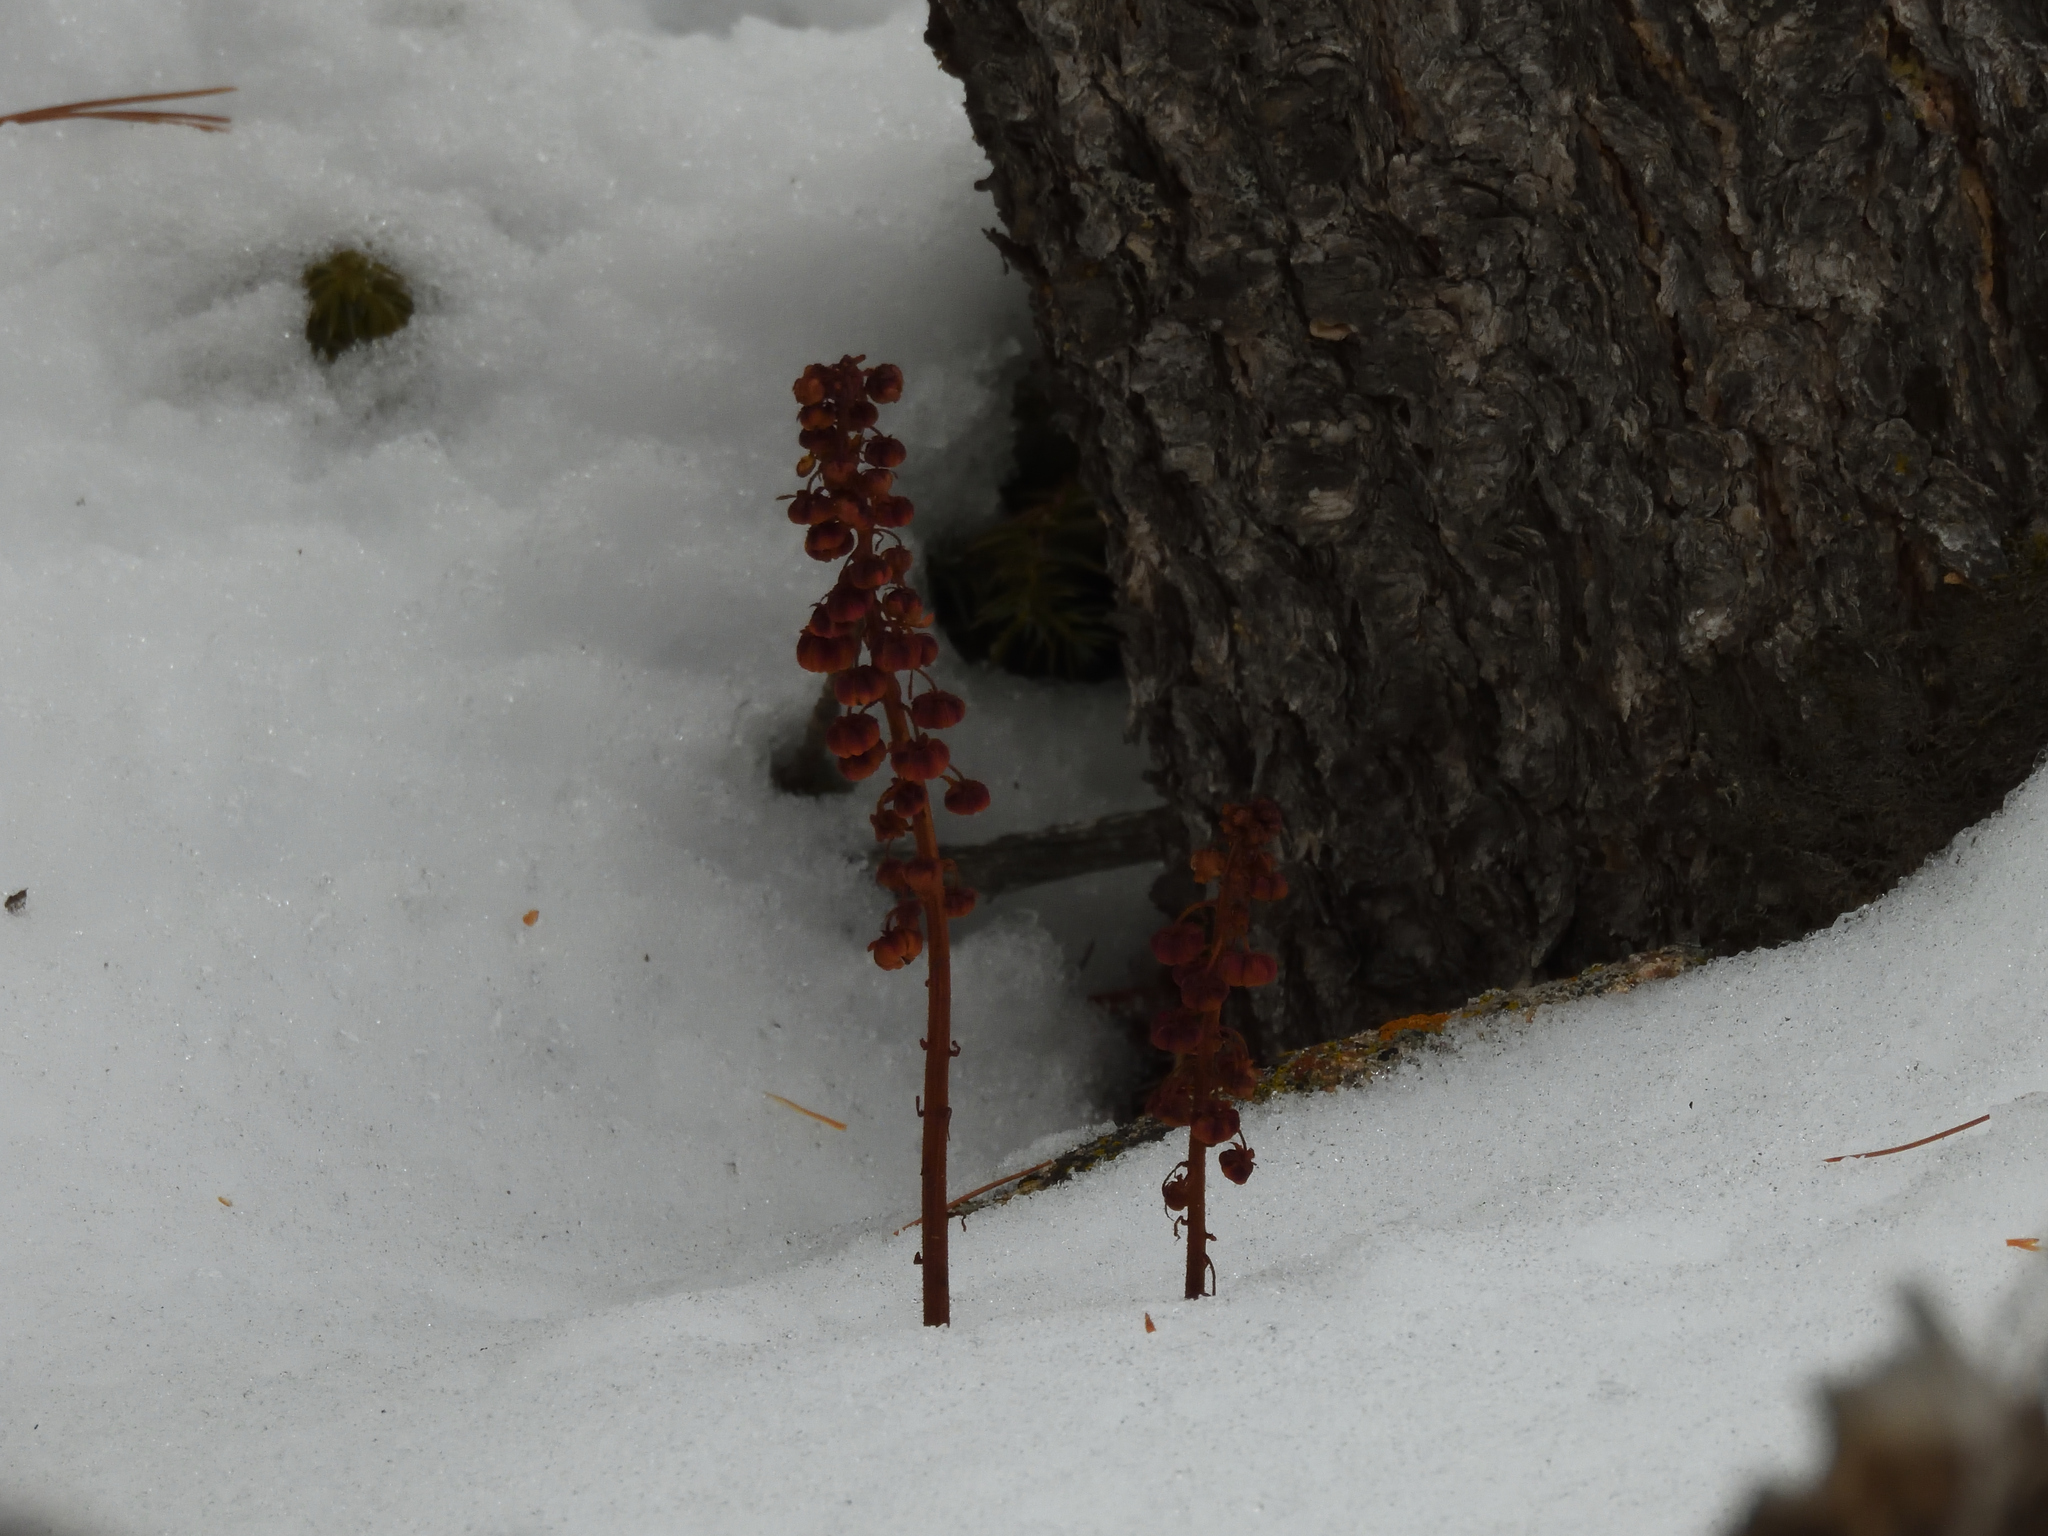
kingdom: Plantae
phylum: Tracheophyta
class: Magnoliopsida
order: Ericales
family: Ericaceae
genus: Pterospora
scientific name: Pterospora andromedea
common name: Giant bird's-nest
